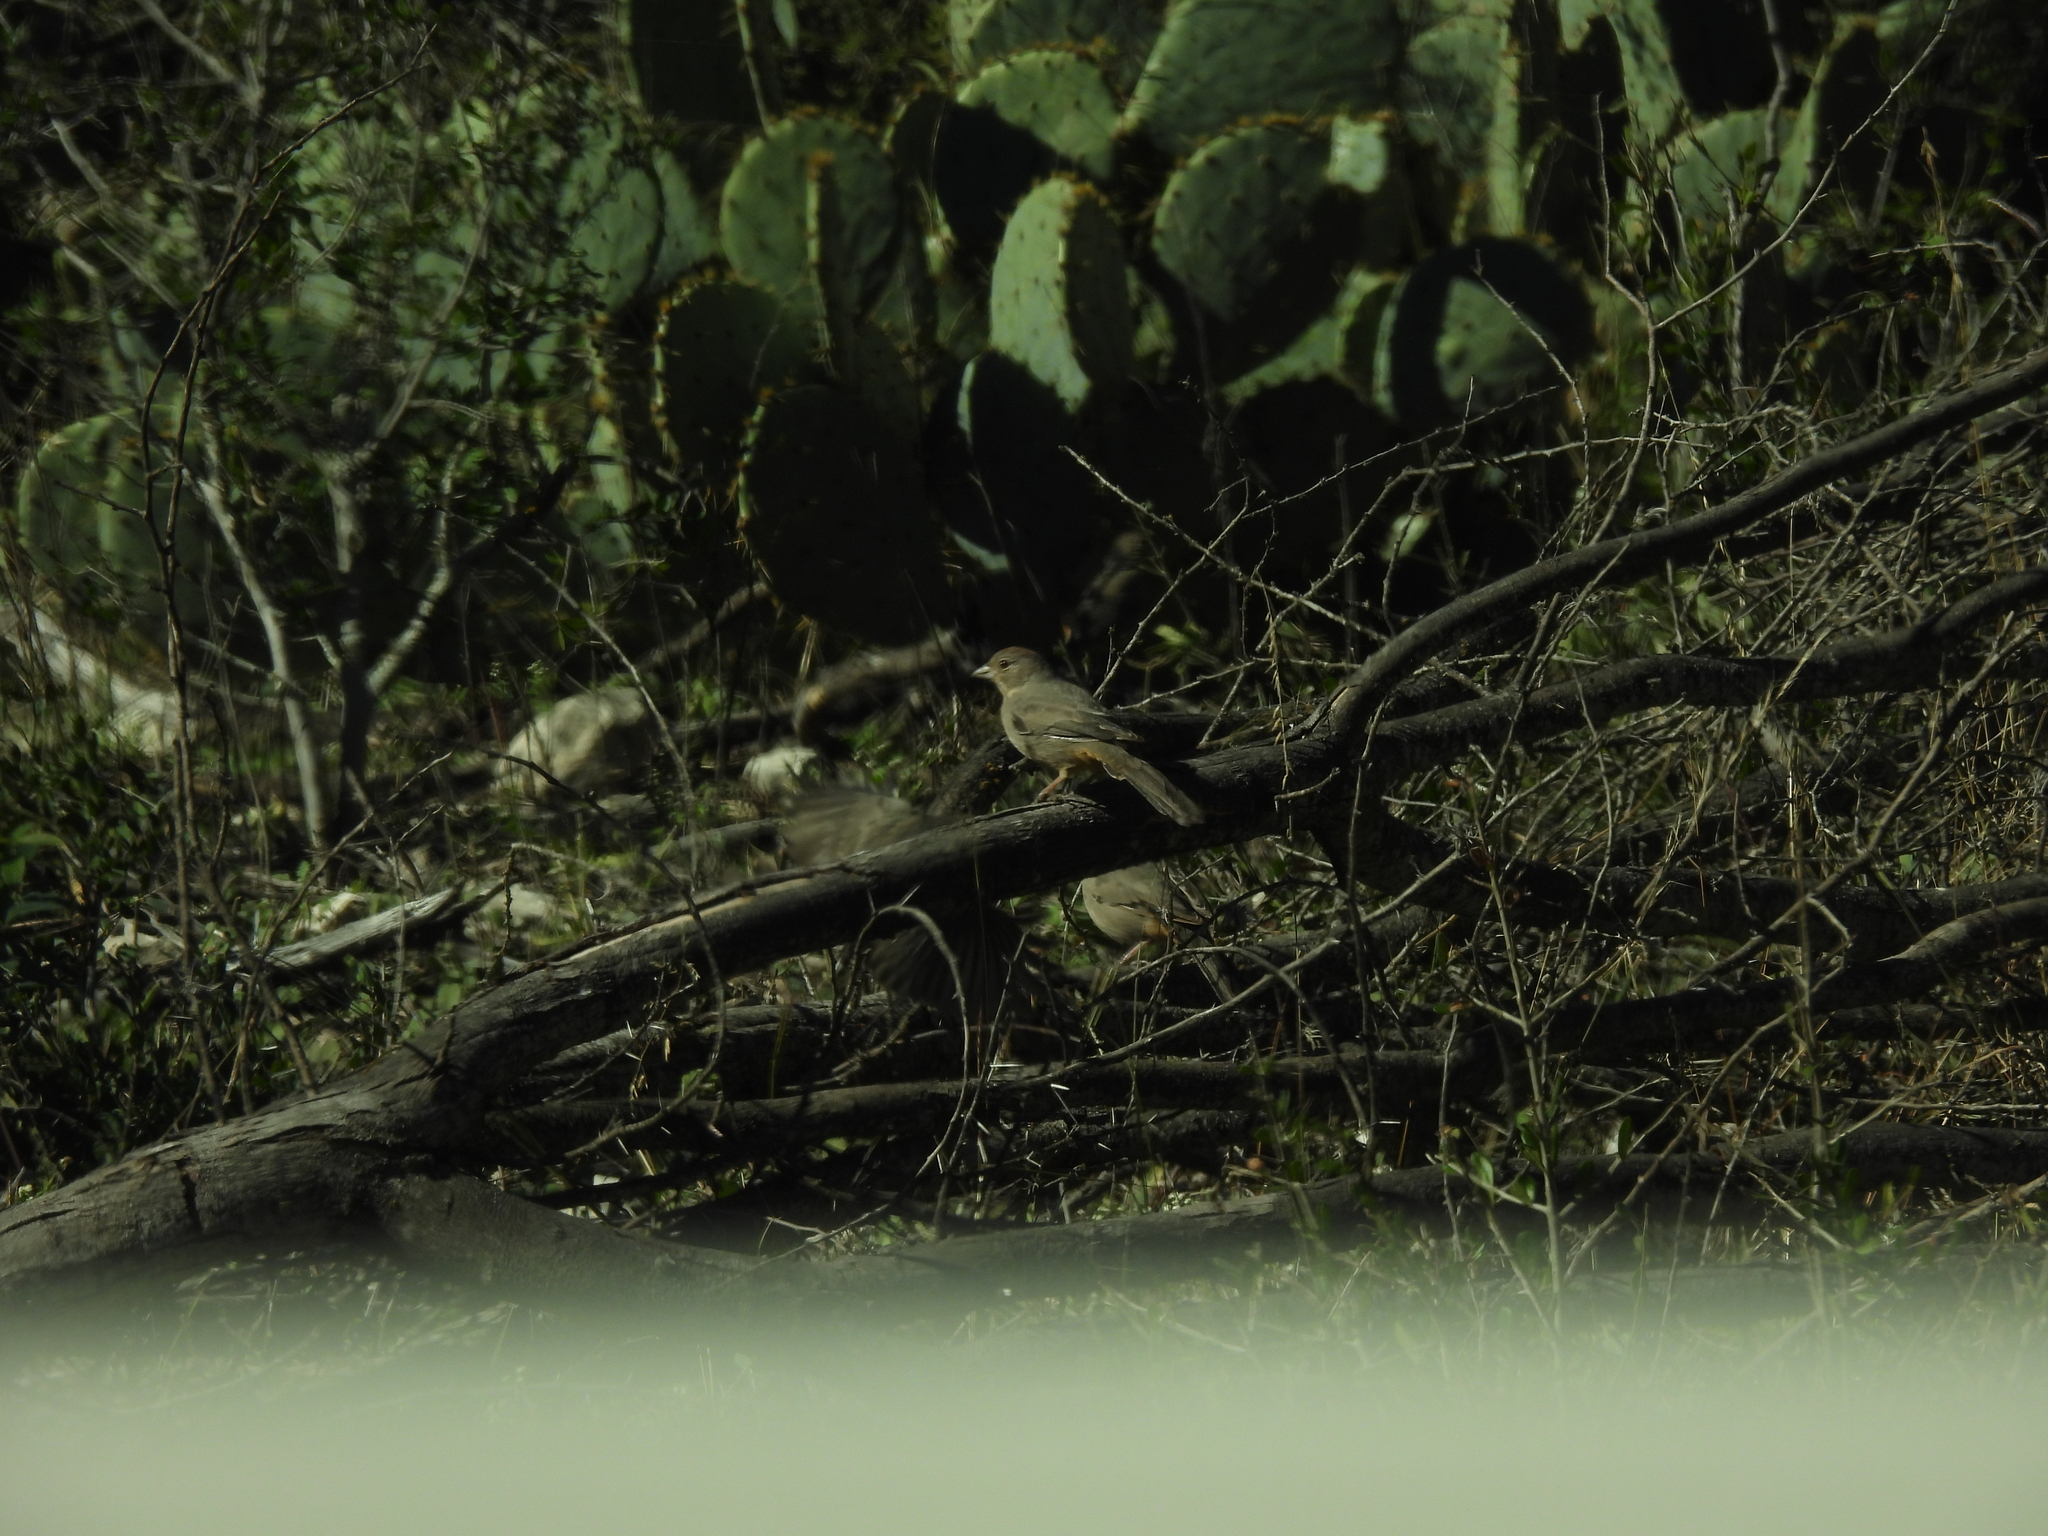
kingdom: Animalia
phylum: Chordata
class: Aves
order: Passeriformes
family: Passerellidae
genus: Melozone
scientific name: Melozone fusca
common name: Canyon towhee
